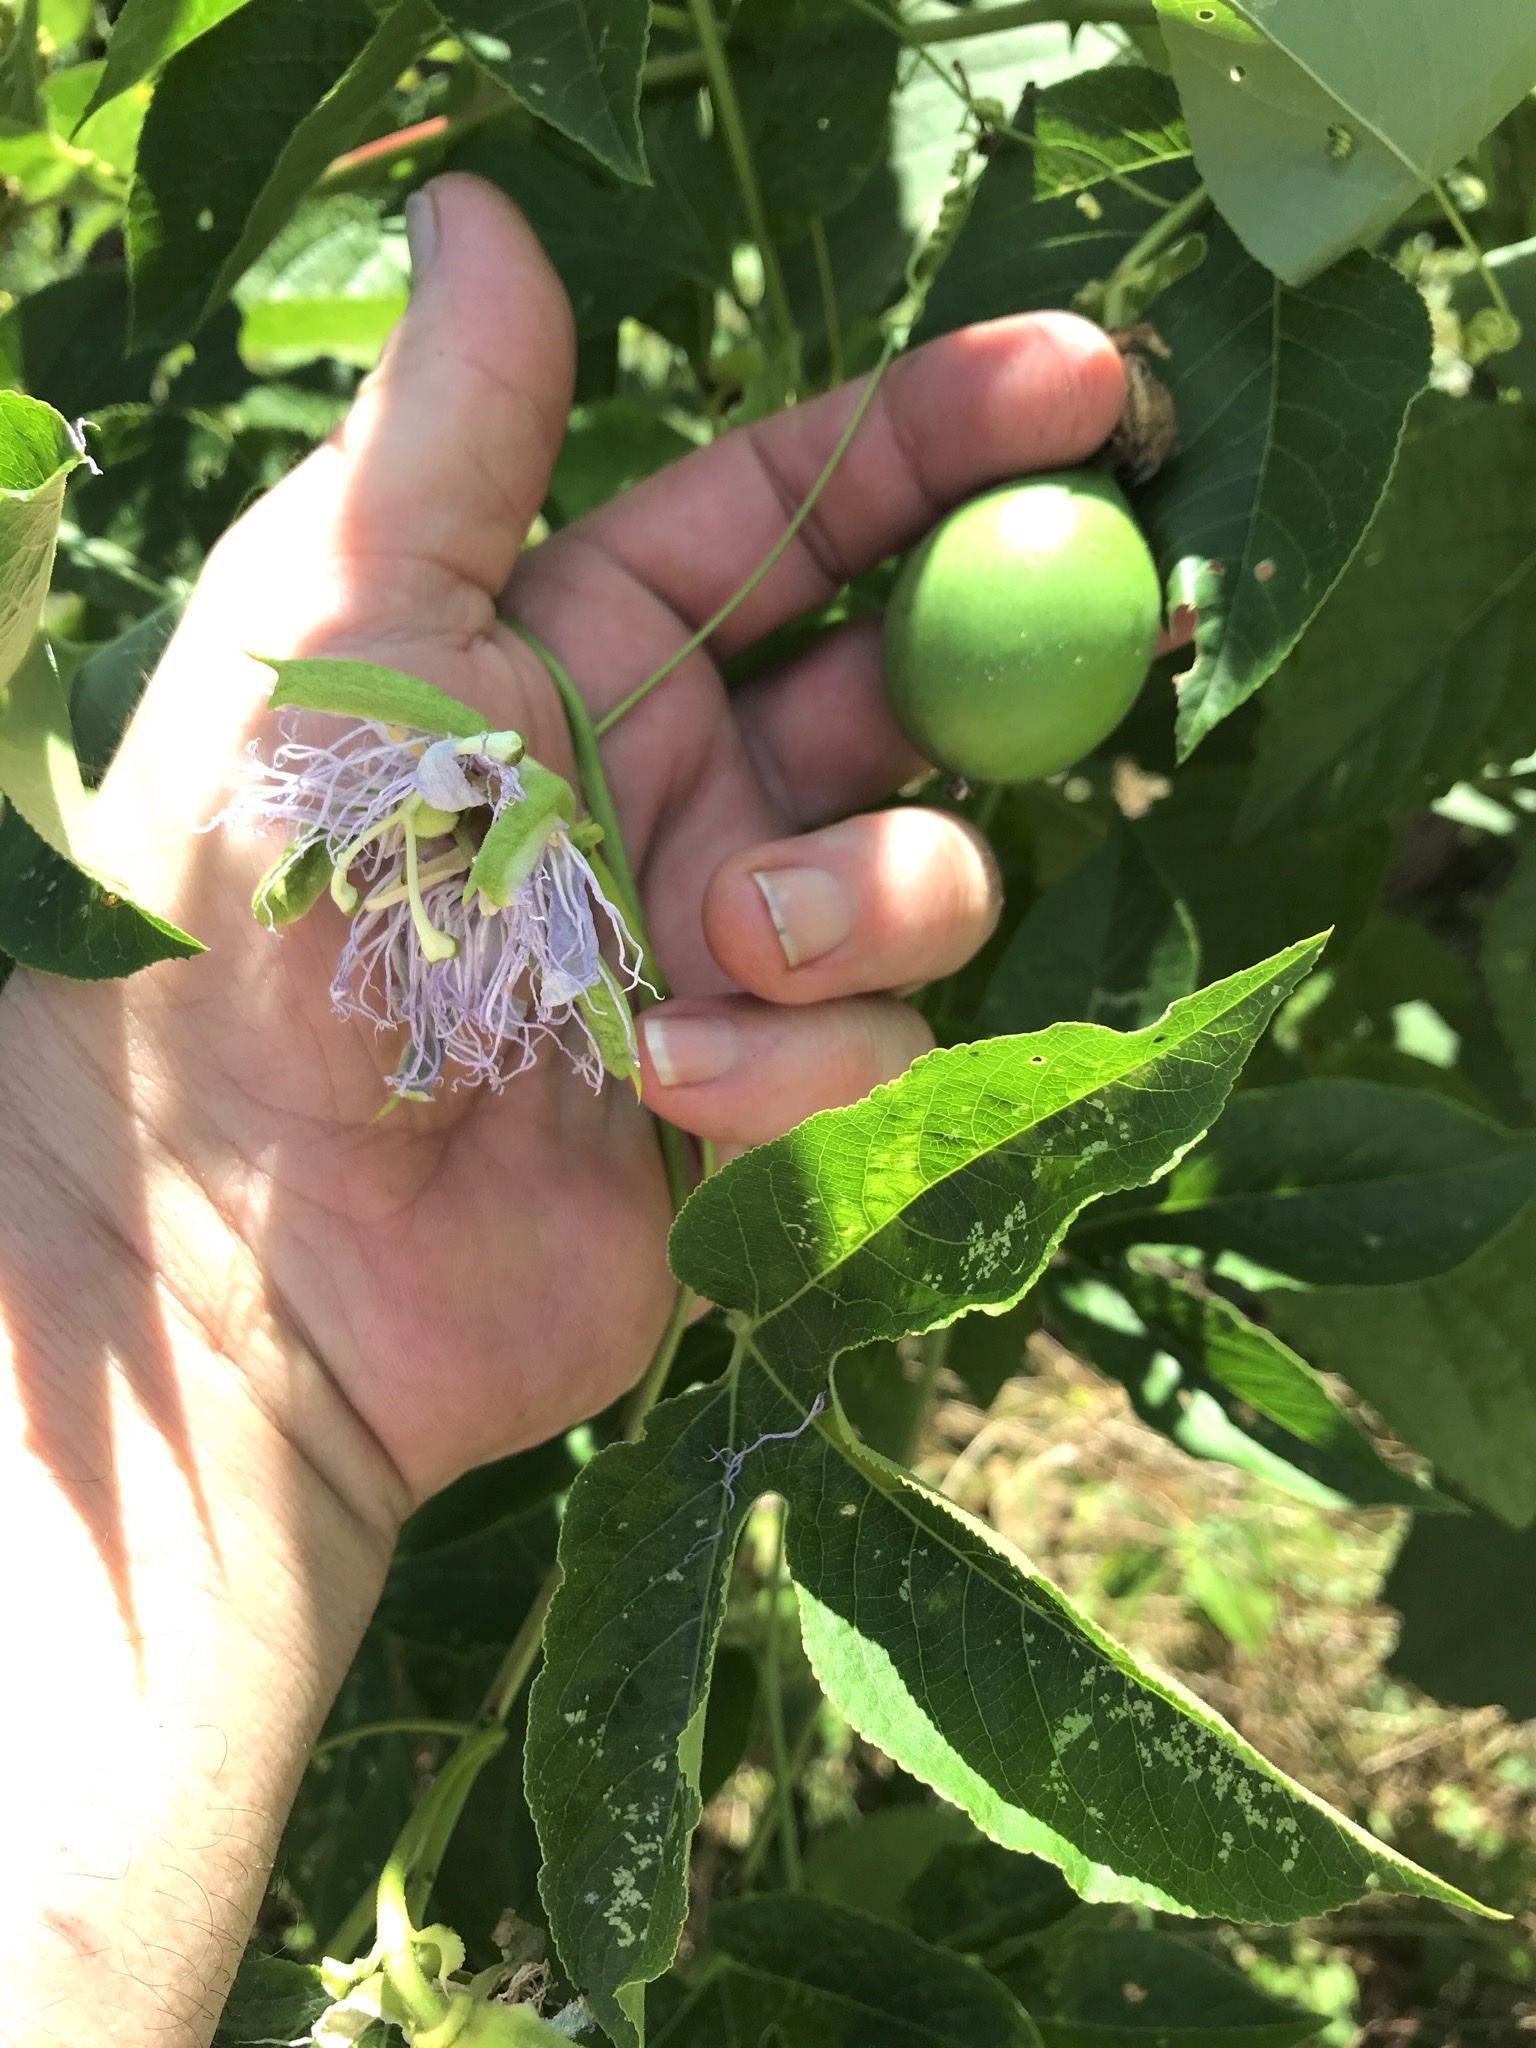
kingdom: Plantae
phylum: Tracheophyta
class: Magnoliopsida
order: Malpighiales
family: Passifloraceae
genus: Passiflora
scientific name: Passiflora incarnata
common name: Apricot-vine
